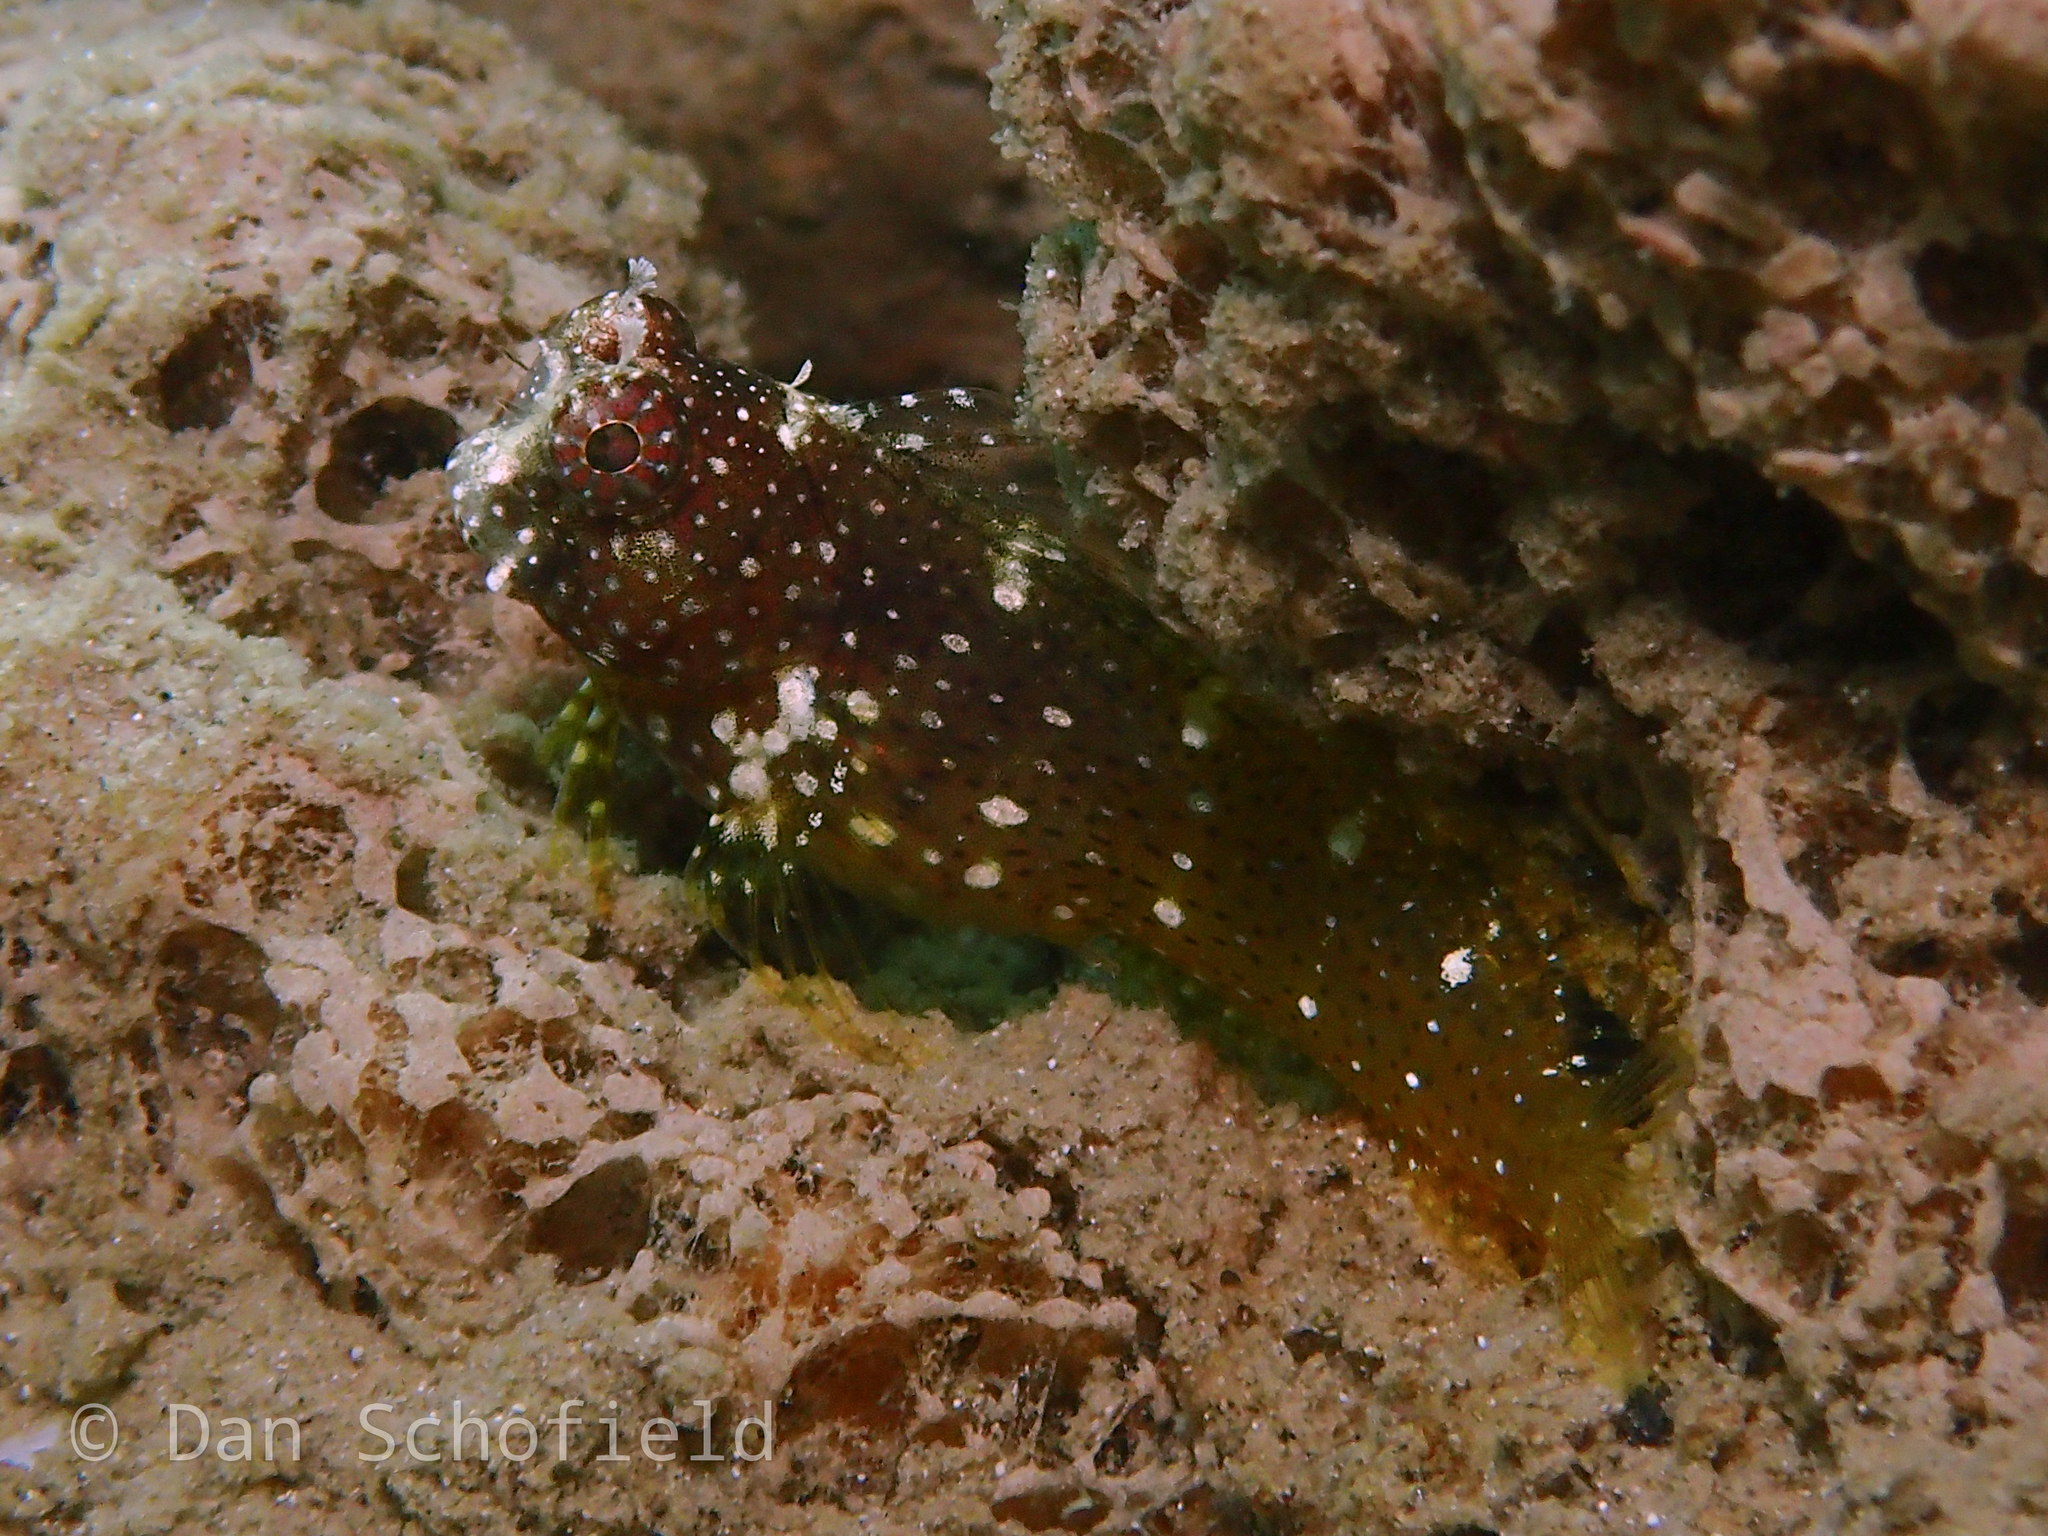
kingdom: Animalia
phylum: Chordata
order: Perciformes
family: Blenniidae
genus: Salarias
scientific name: Salarias ramosus
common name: Snowflake blenny
